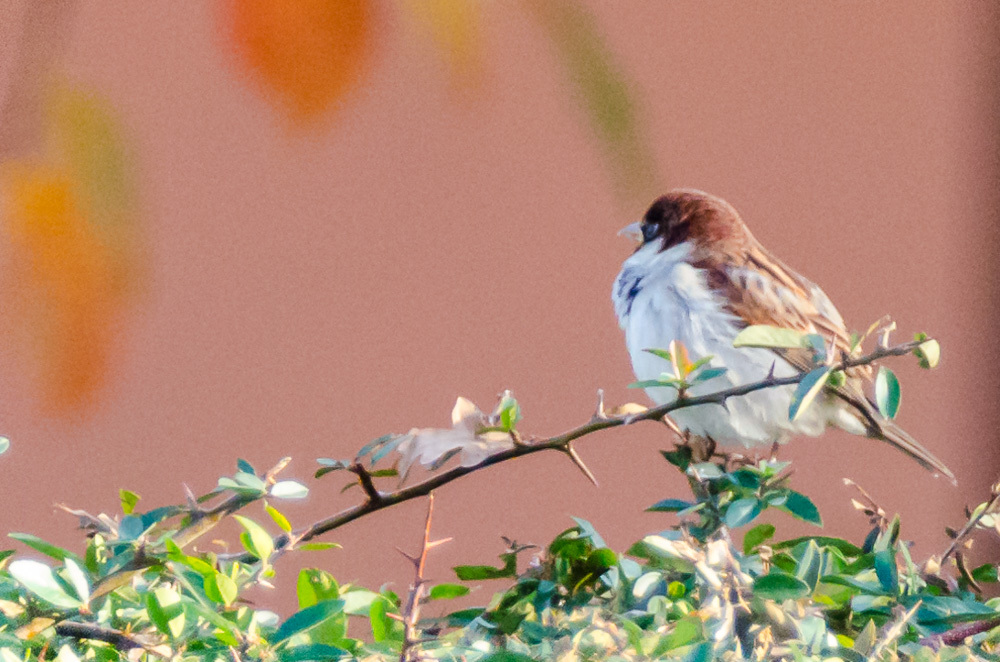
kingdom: Animalia
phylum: Chordata
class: Aves
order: Passeriformes
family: Passeridae
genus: Passer
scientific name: Passer italiae
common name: Italian sparrow
